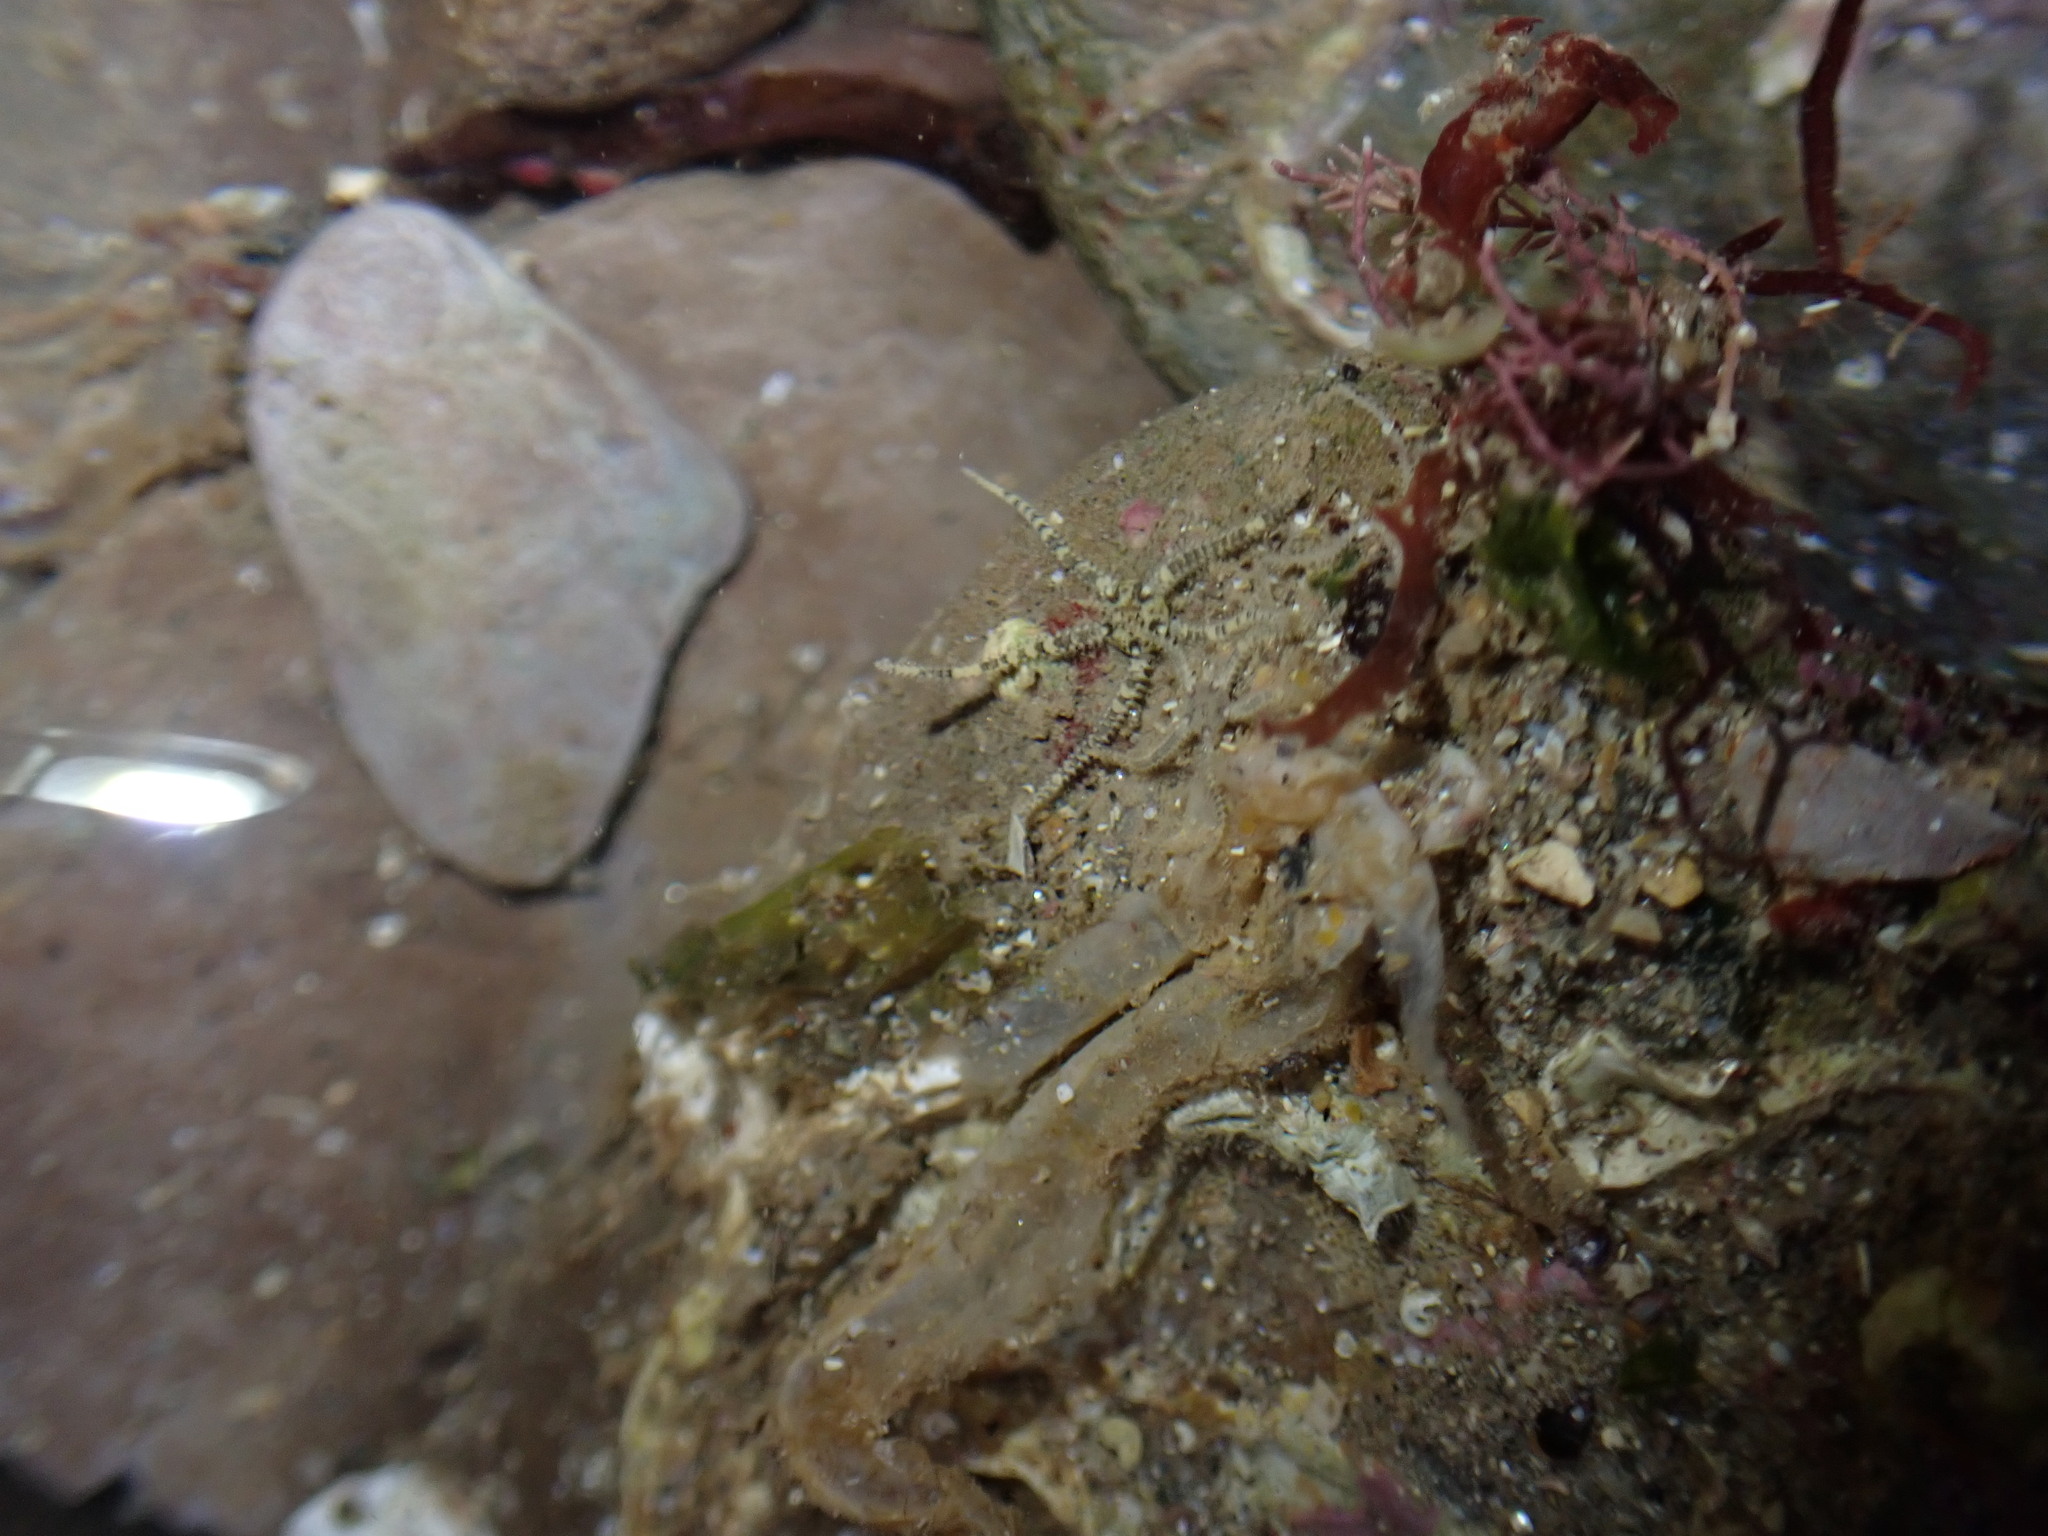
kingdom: Animalia
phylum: Echinodermata
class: Ophiuroidea
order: Amphilepidida
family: Amphiuridae
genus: Amphipholis
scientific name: Amphipholis squamata
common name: Brooding snake star
